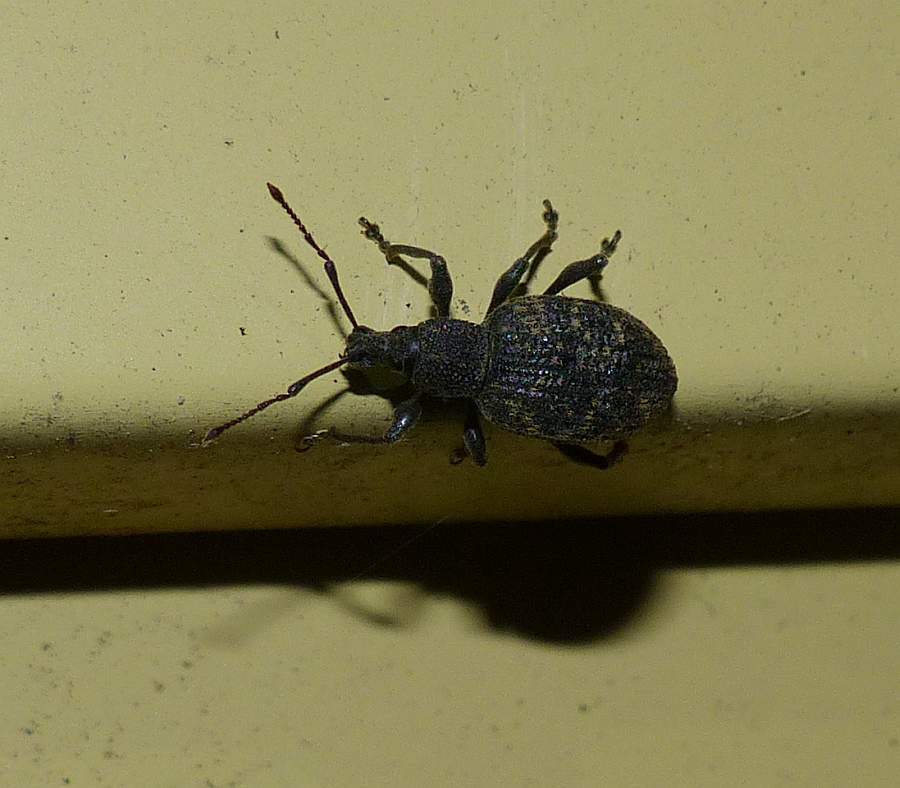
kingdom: Animalia
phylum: Arthropoda
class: Insecta
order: Coleoptera
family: Curculionidae
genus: Otiorhynchus
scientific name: Otiorhynchus sulcatus
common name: Black vine weevil
